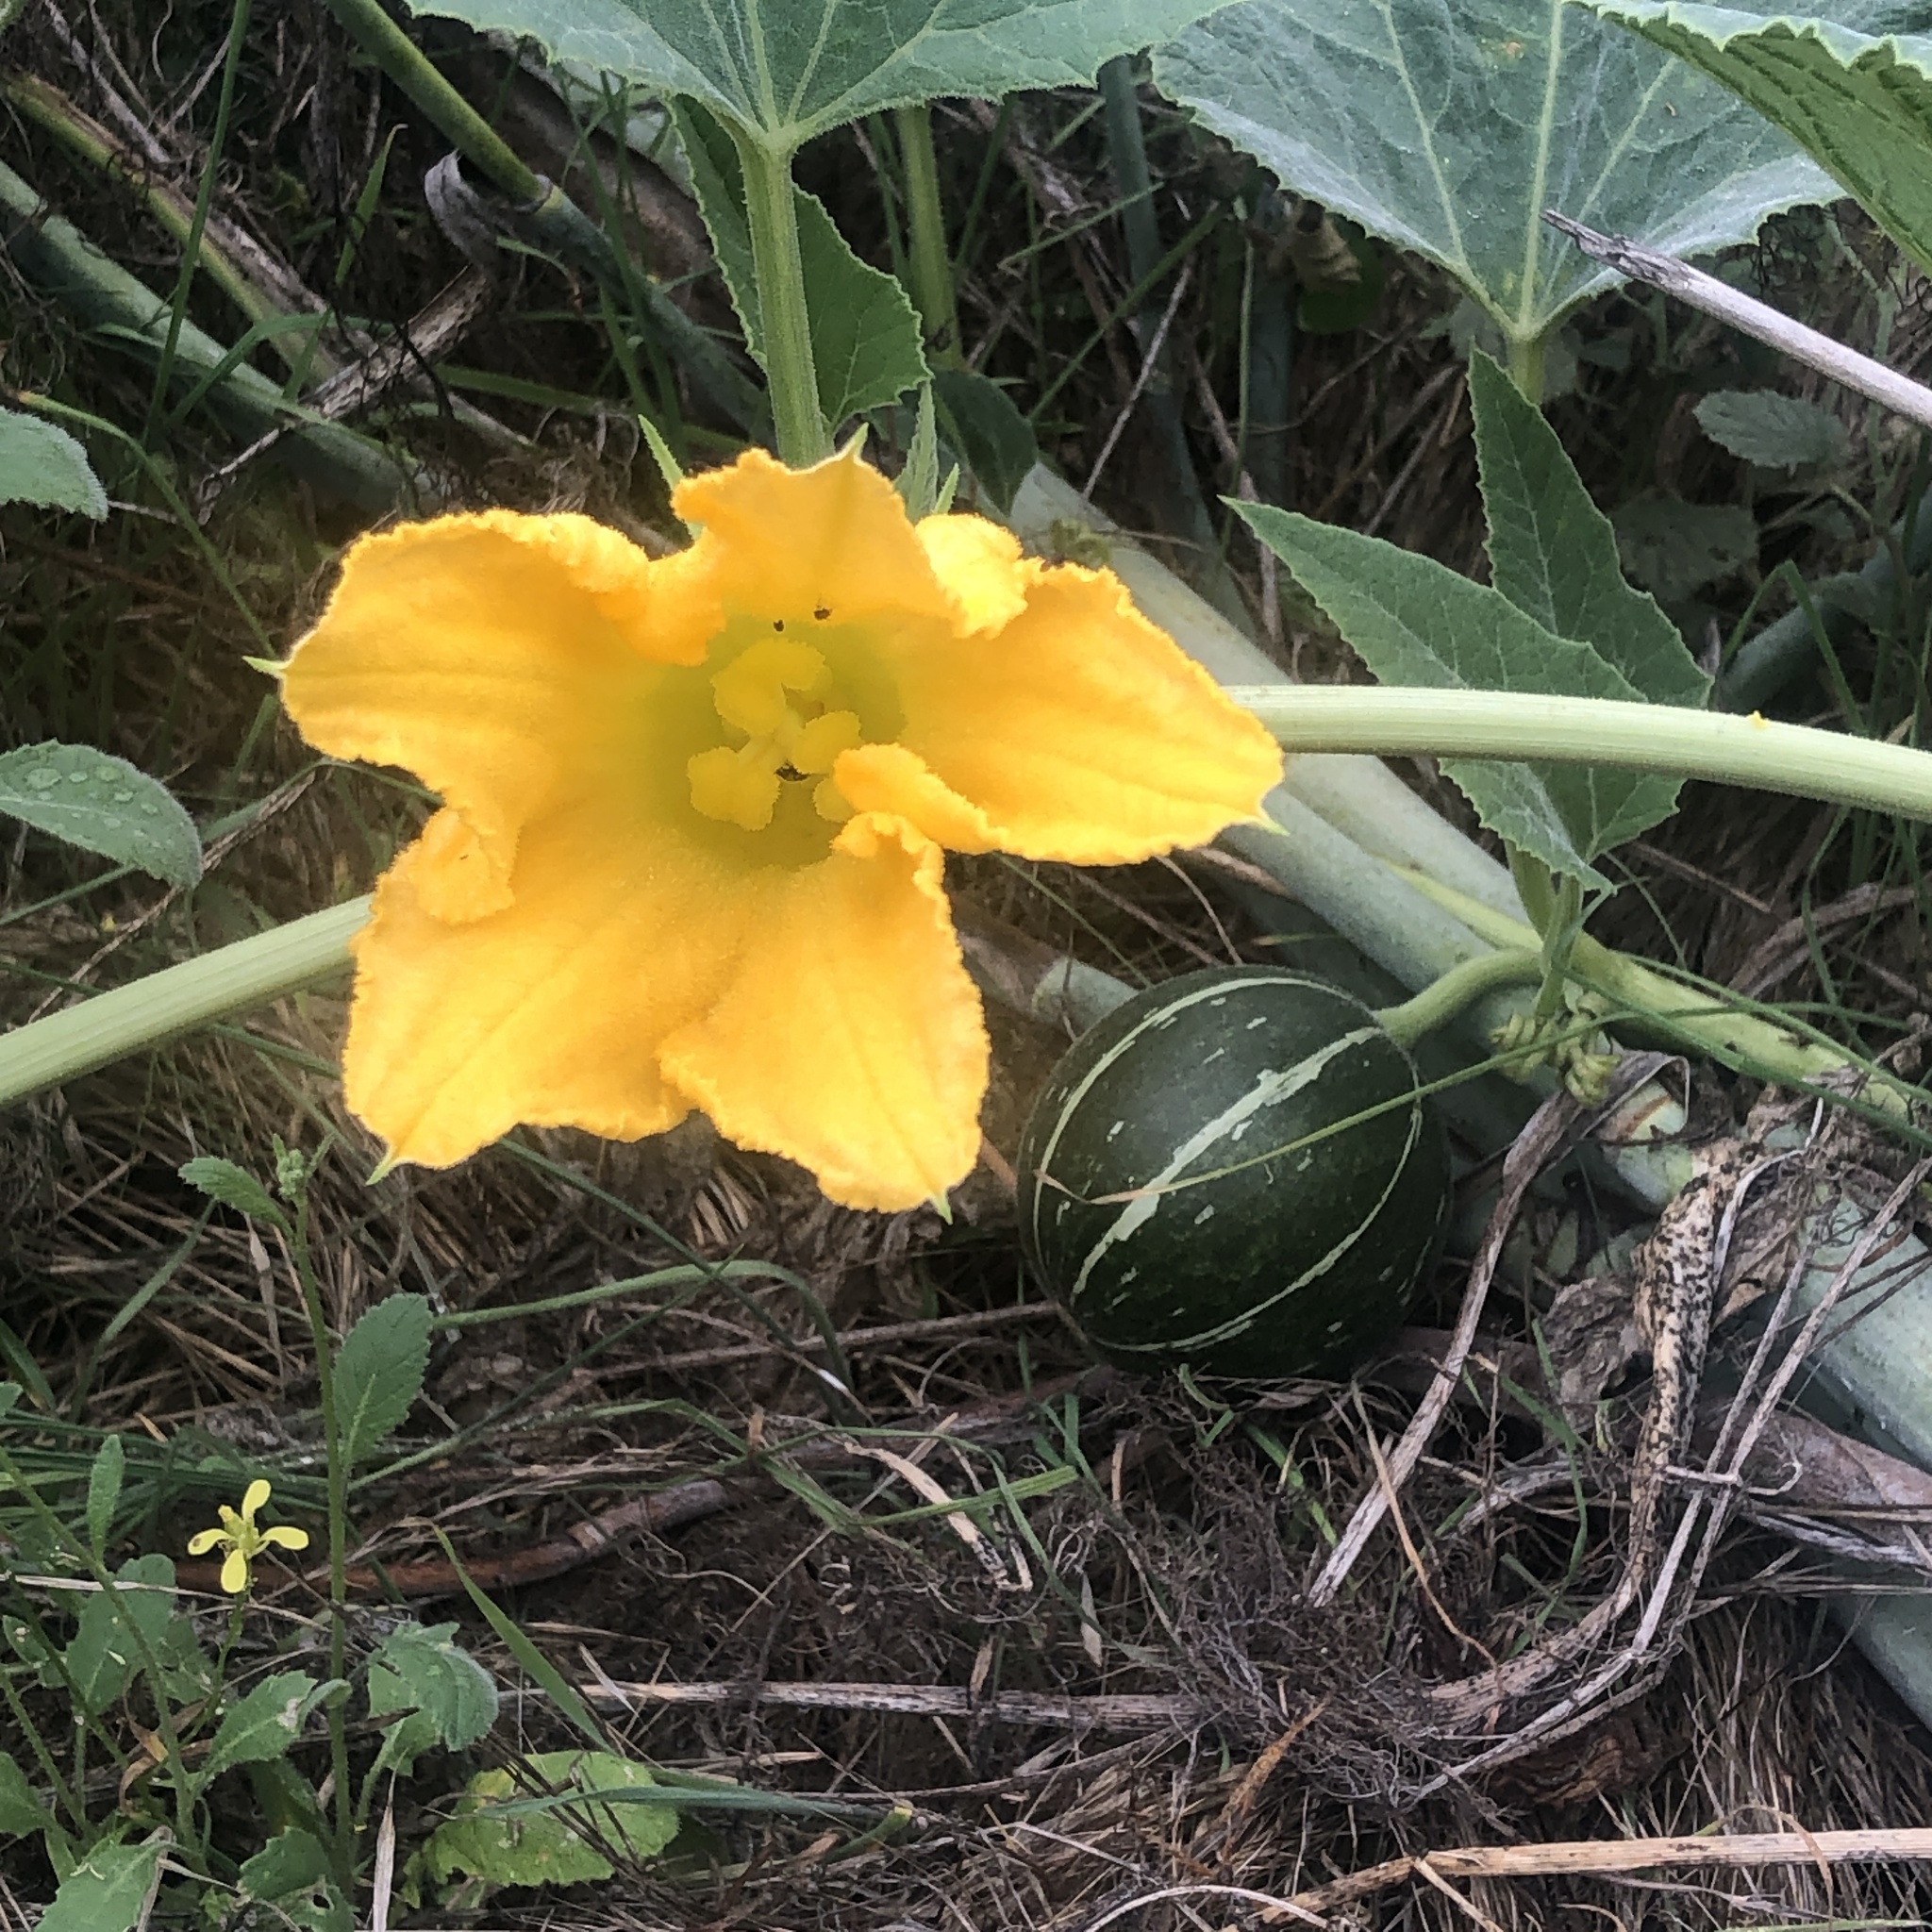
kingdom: Plantae
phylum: Tracheophyta
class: Magnoliopsida
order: Cucurbitales
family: Cucurbitaceae
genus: Cucurbita
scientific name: Cucurbita foetidissima
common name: Buffalo gourd
